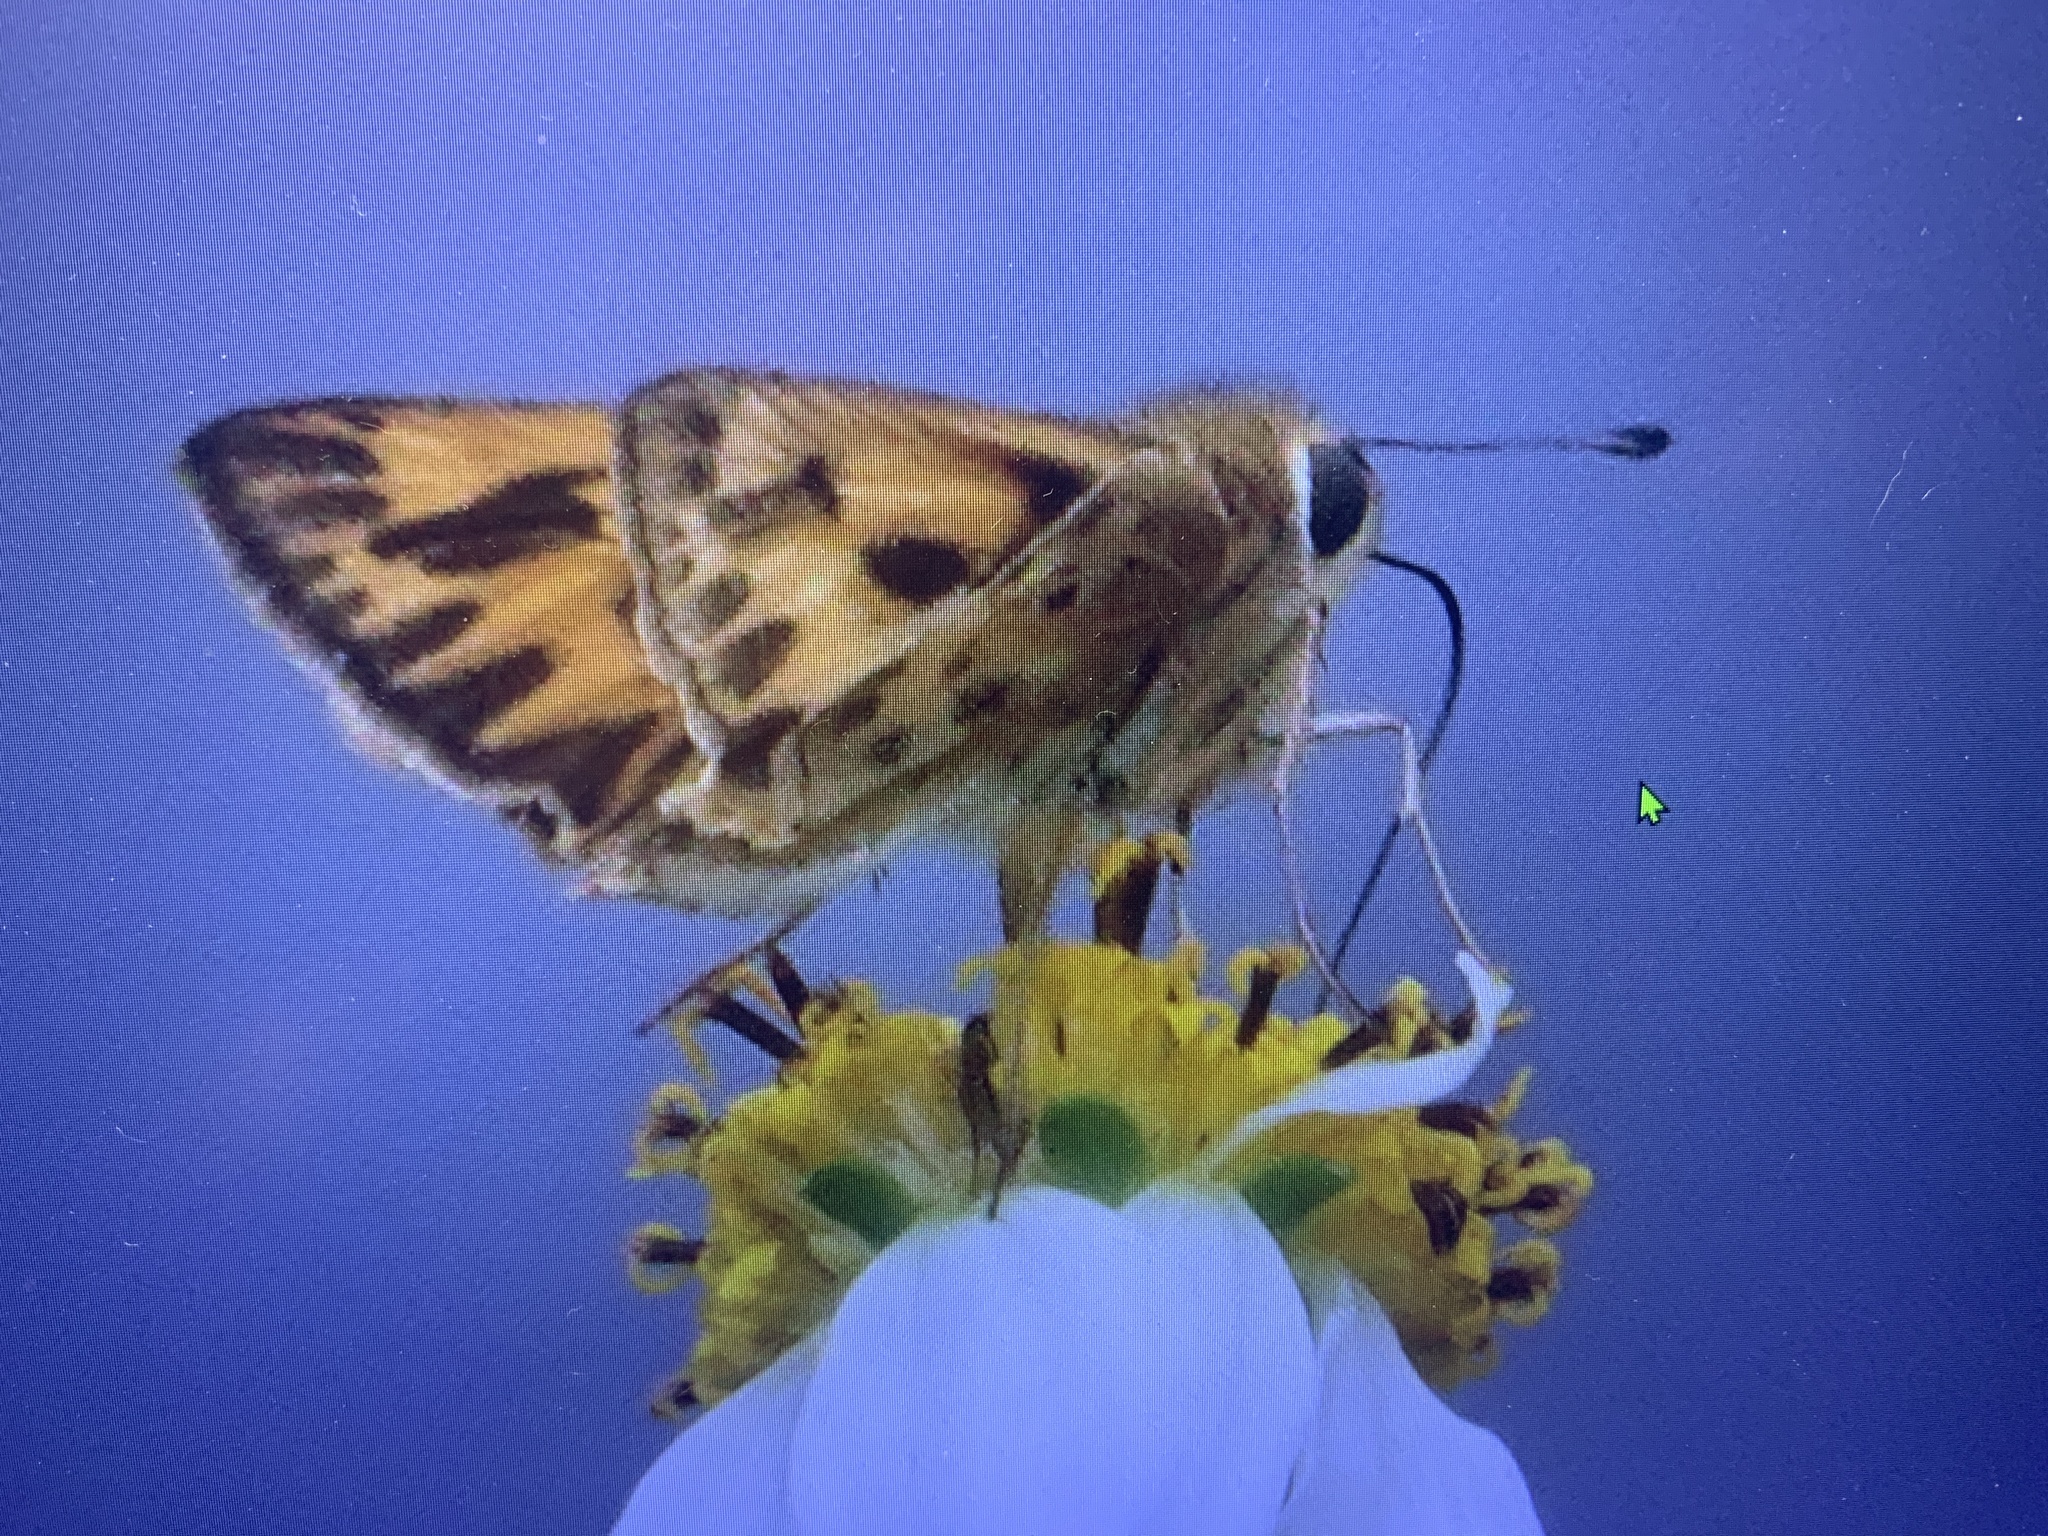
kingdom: Animalia
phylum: Arthropoda
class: Insecta
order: Lepidoptera
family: Hesperiidae
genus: Hylephila
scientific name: Hylephila phyleus
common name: Fiery skipper
